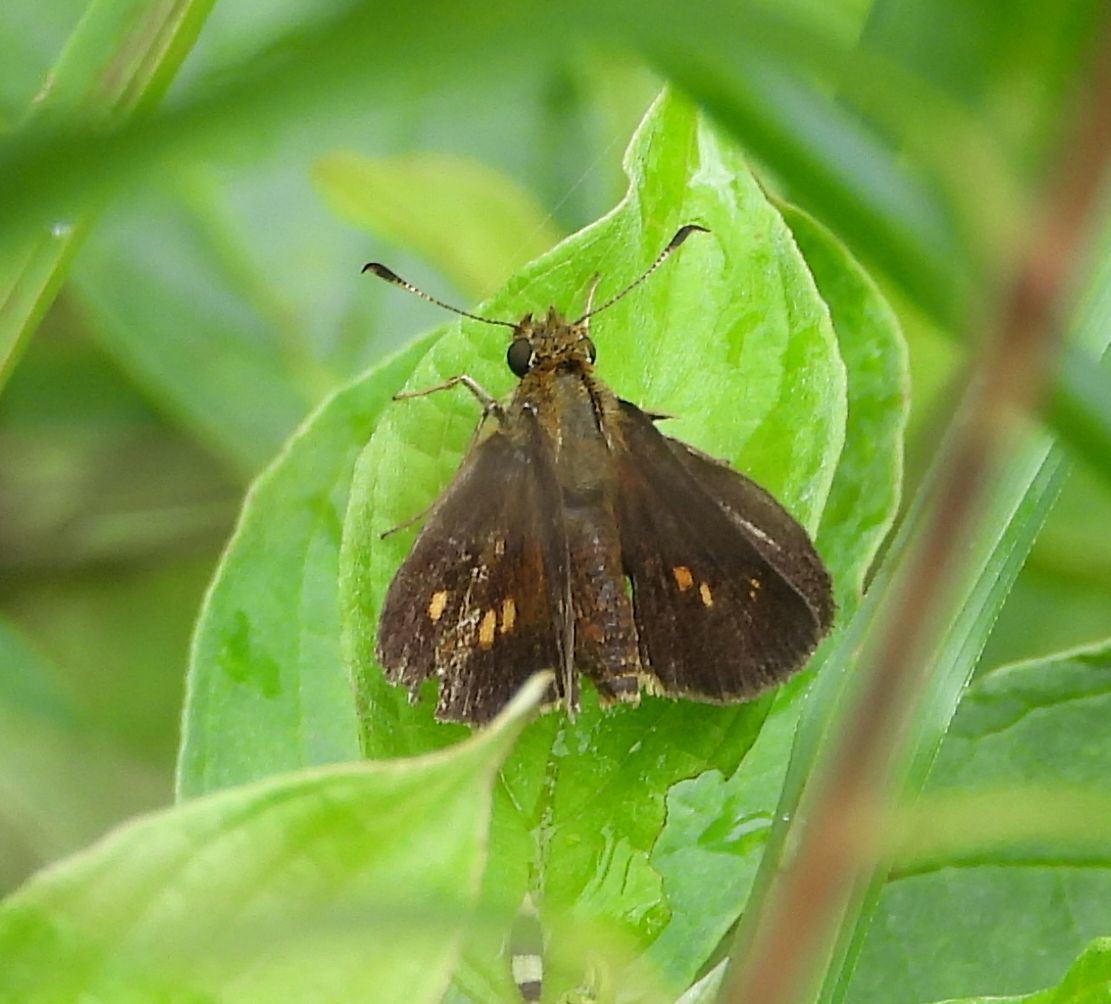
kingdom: Animalia
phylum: Arthropoda
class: Insecta
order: Lepidoptera
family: Hesperiidae
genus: Poanes
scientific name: Poanes massasoit
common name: Mulberrywing
